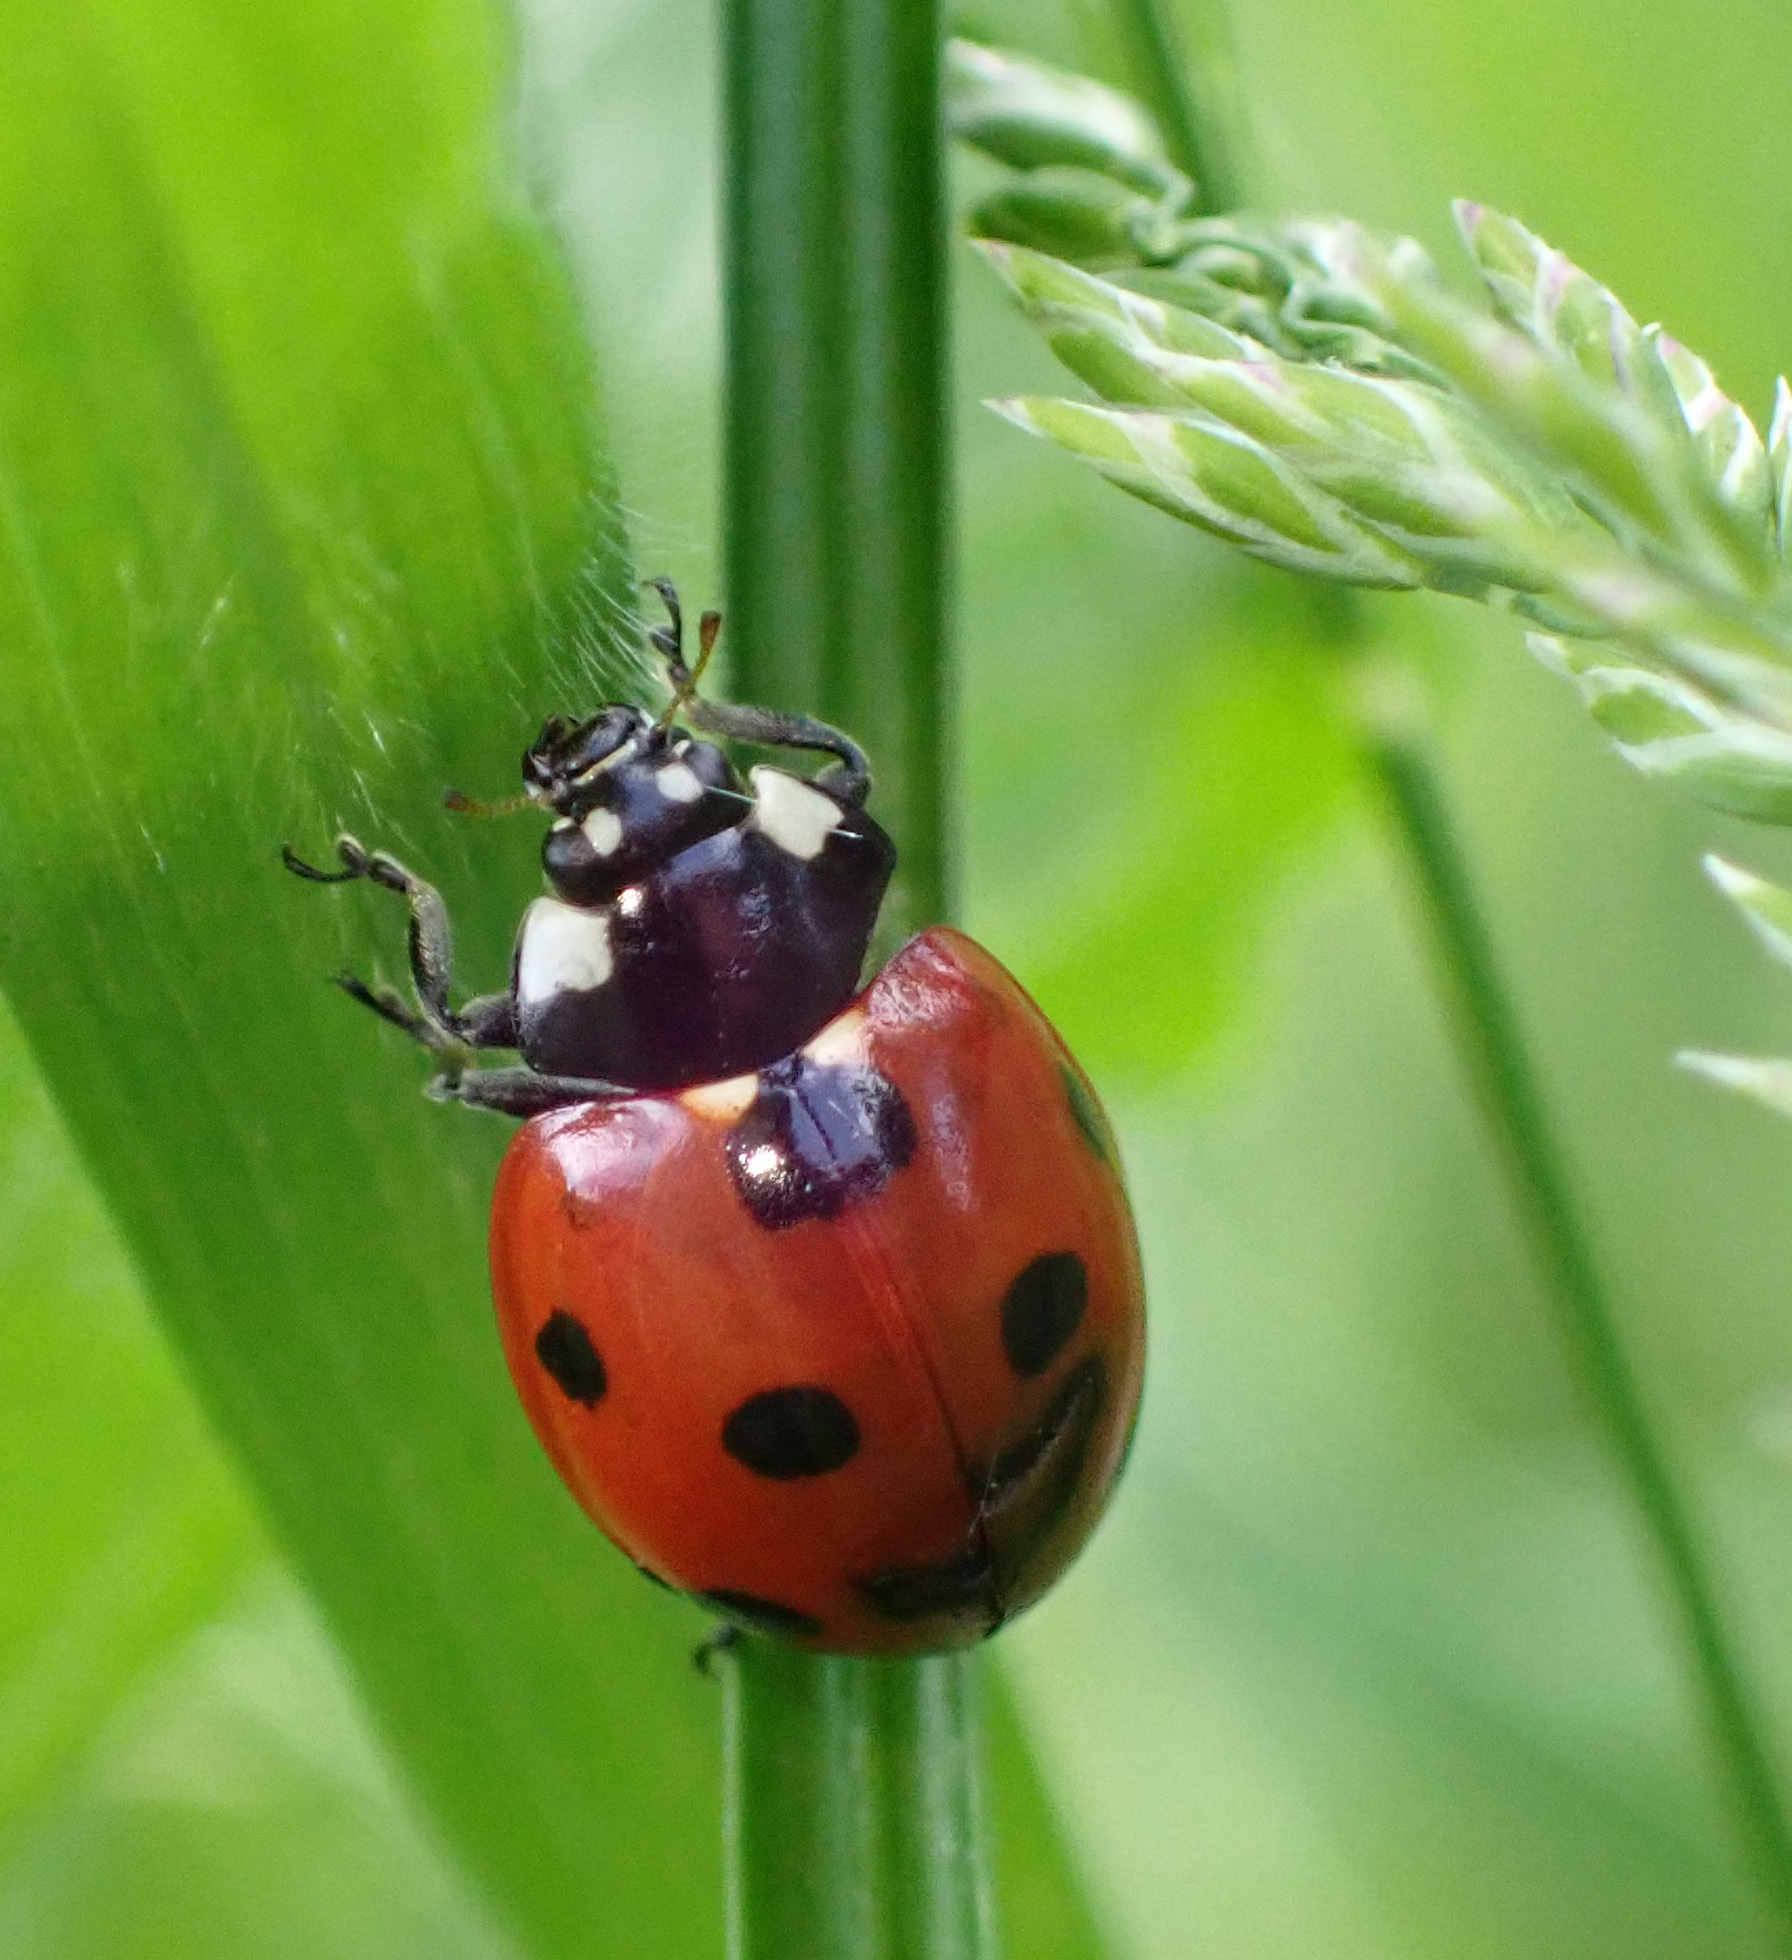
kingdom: Animalia
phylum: Arthropoda
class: Insecta
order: Coleoptera
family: Coccinellidae
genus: Coccinella
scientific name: Coccinella septempunctata
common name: Sevenspotted lady beetle
